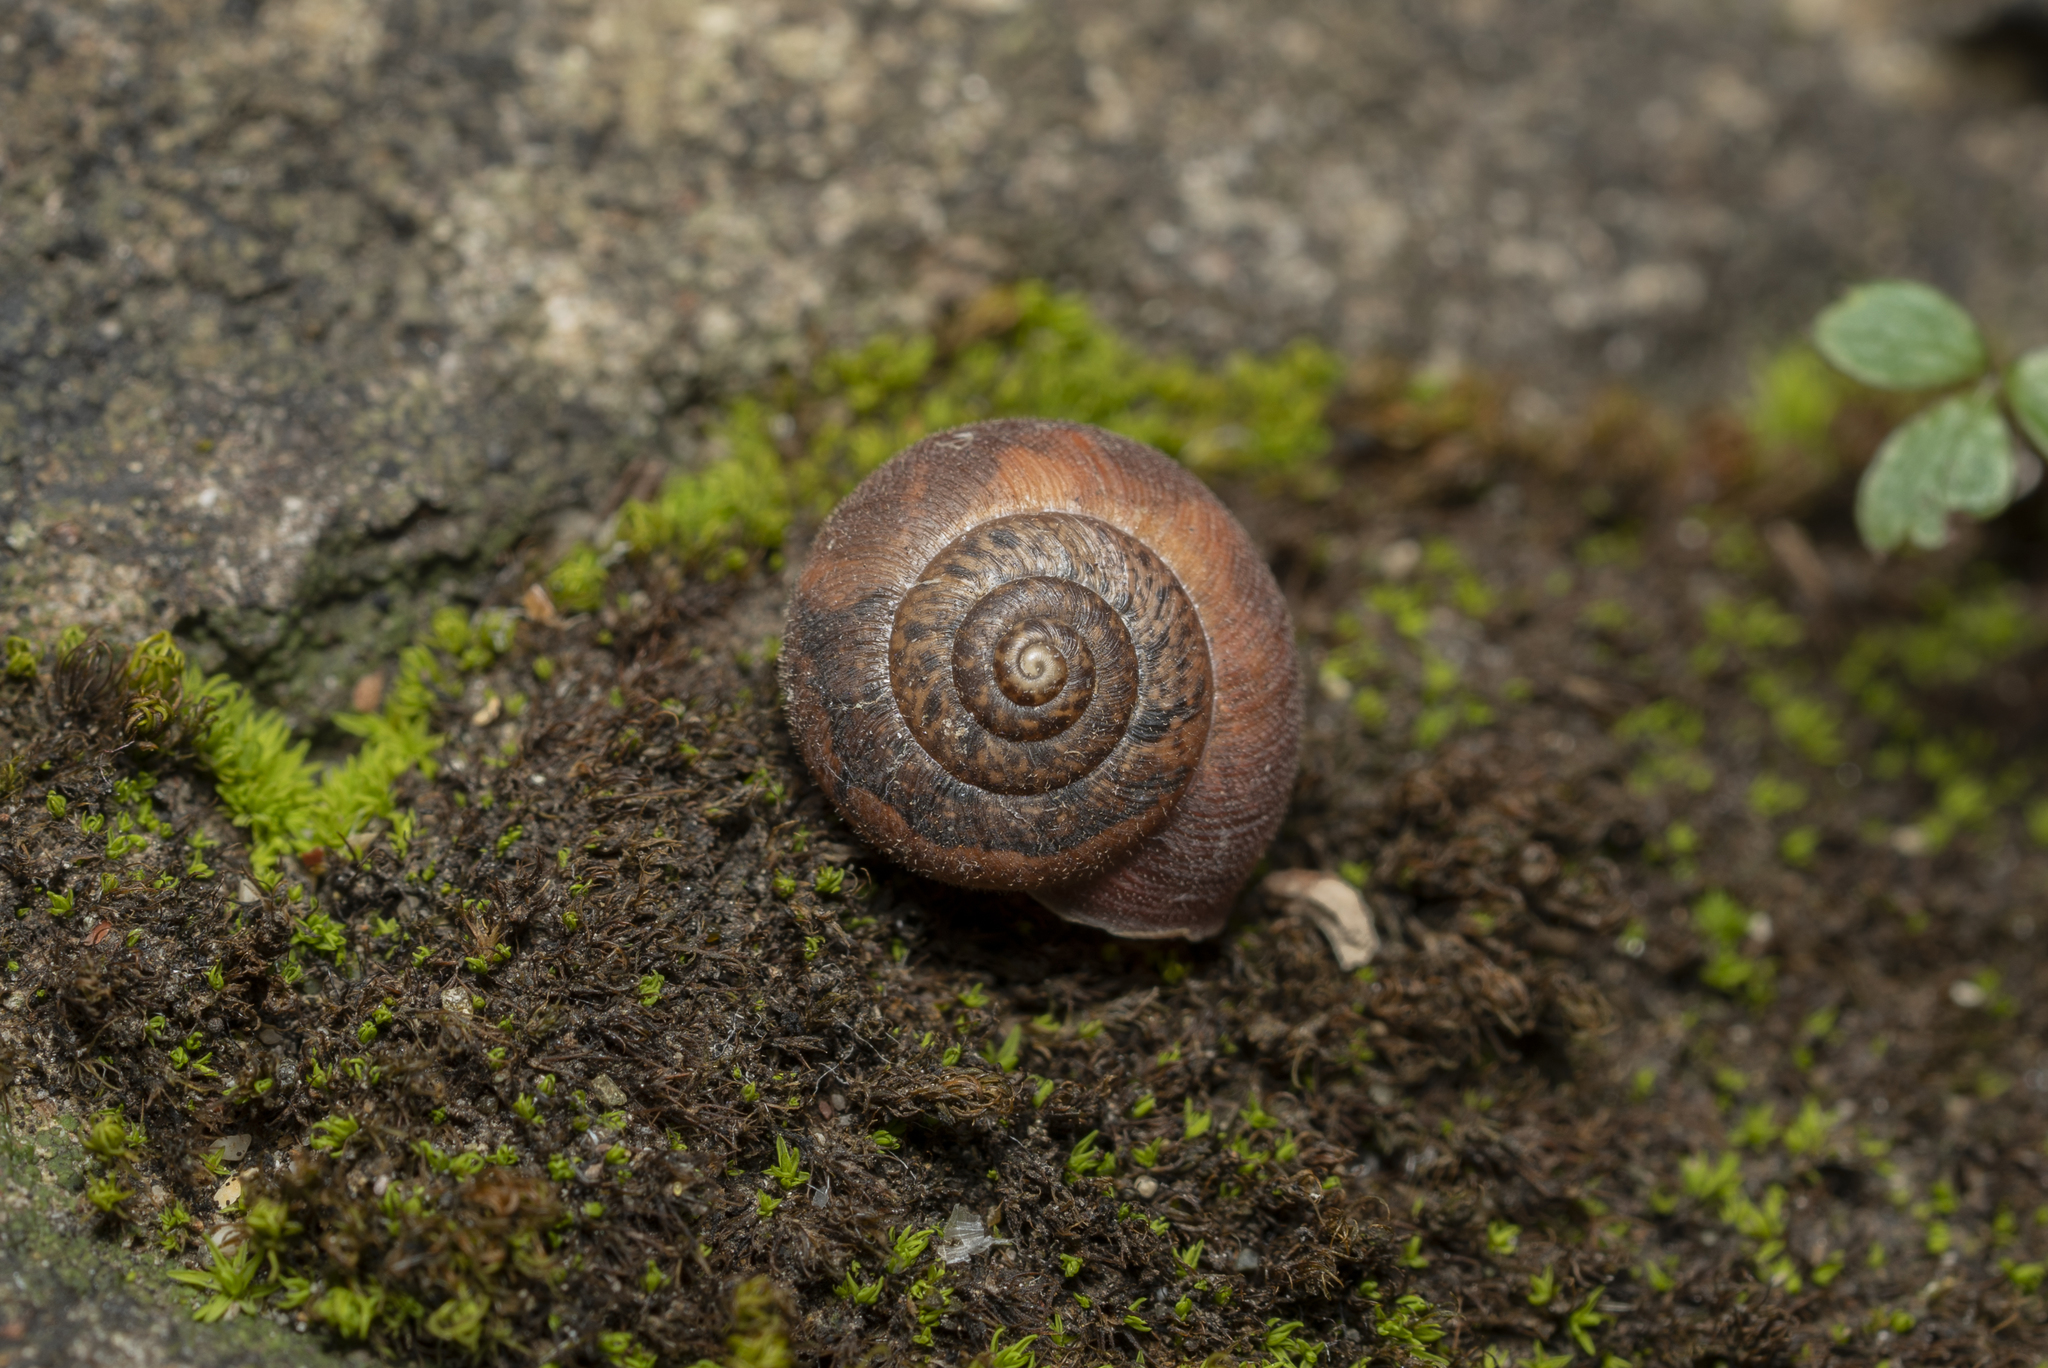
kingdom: Animalia
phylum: Mollusca
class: Gastropoda
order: Stylommatophora
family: Hygromiidae
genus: Metafruticicola
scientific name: Metafruticicola nicosiana
